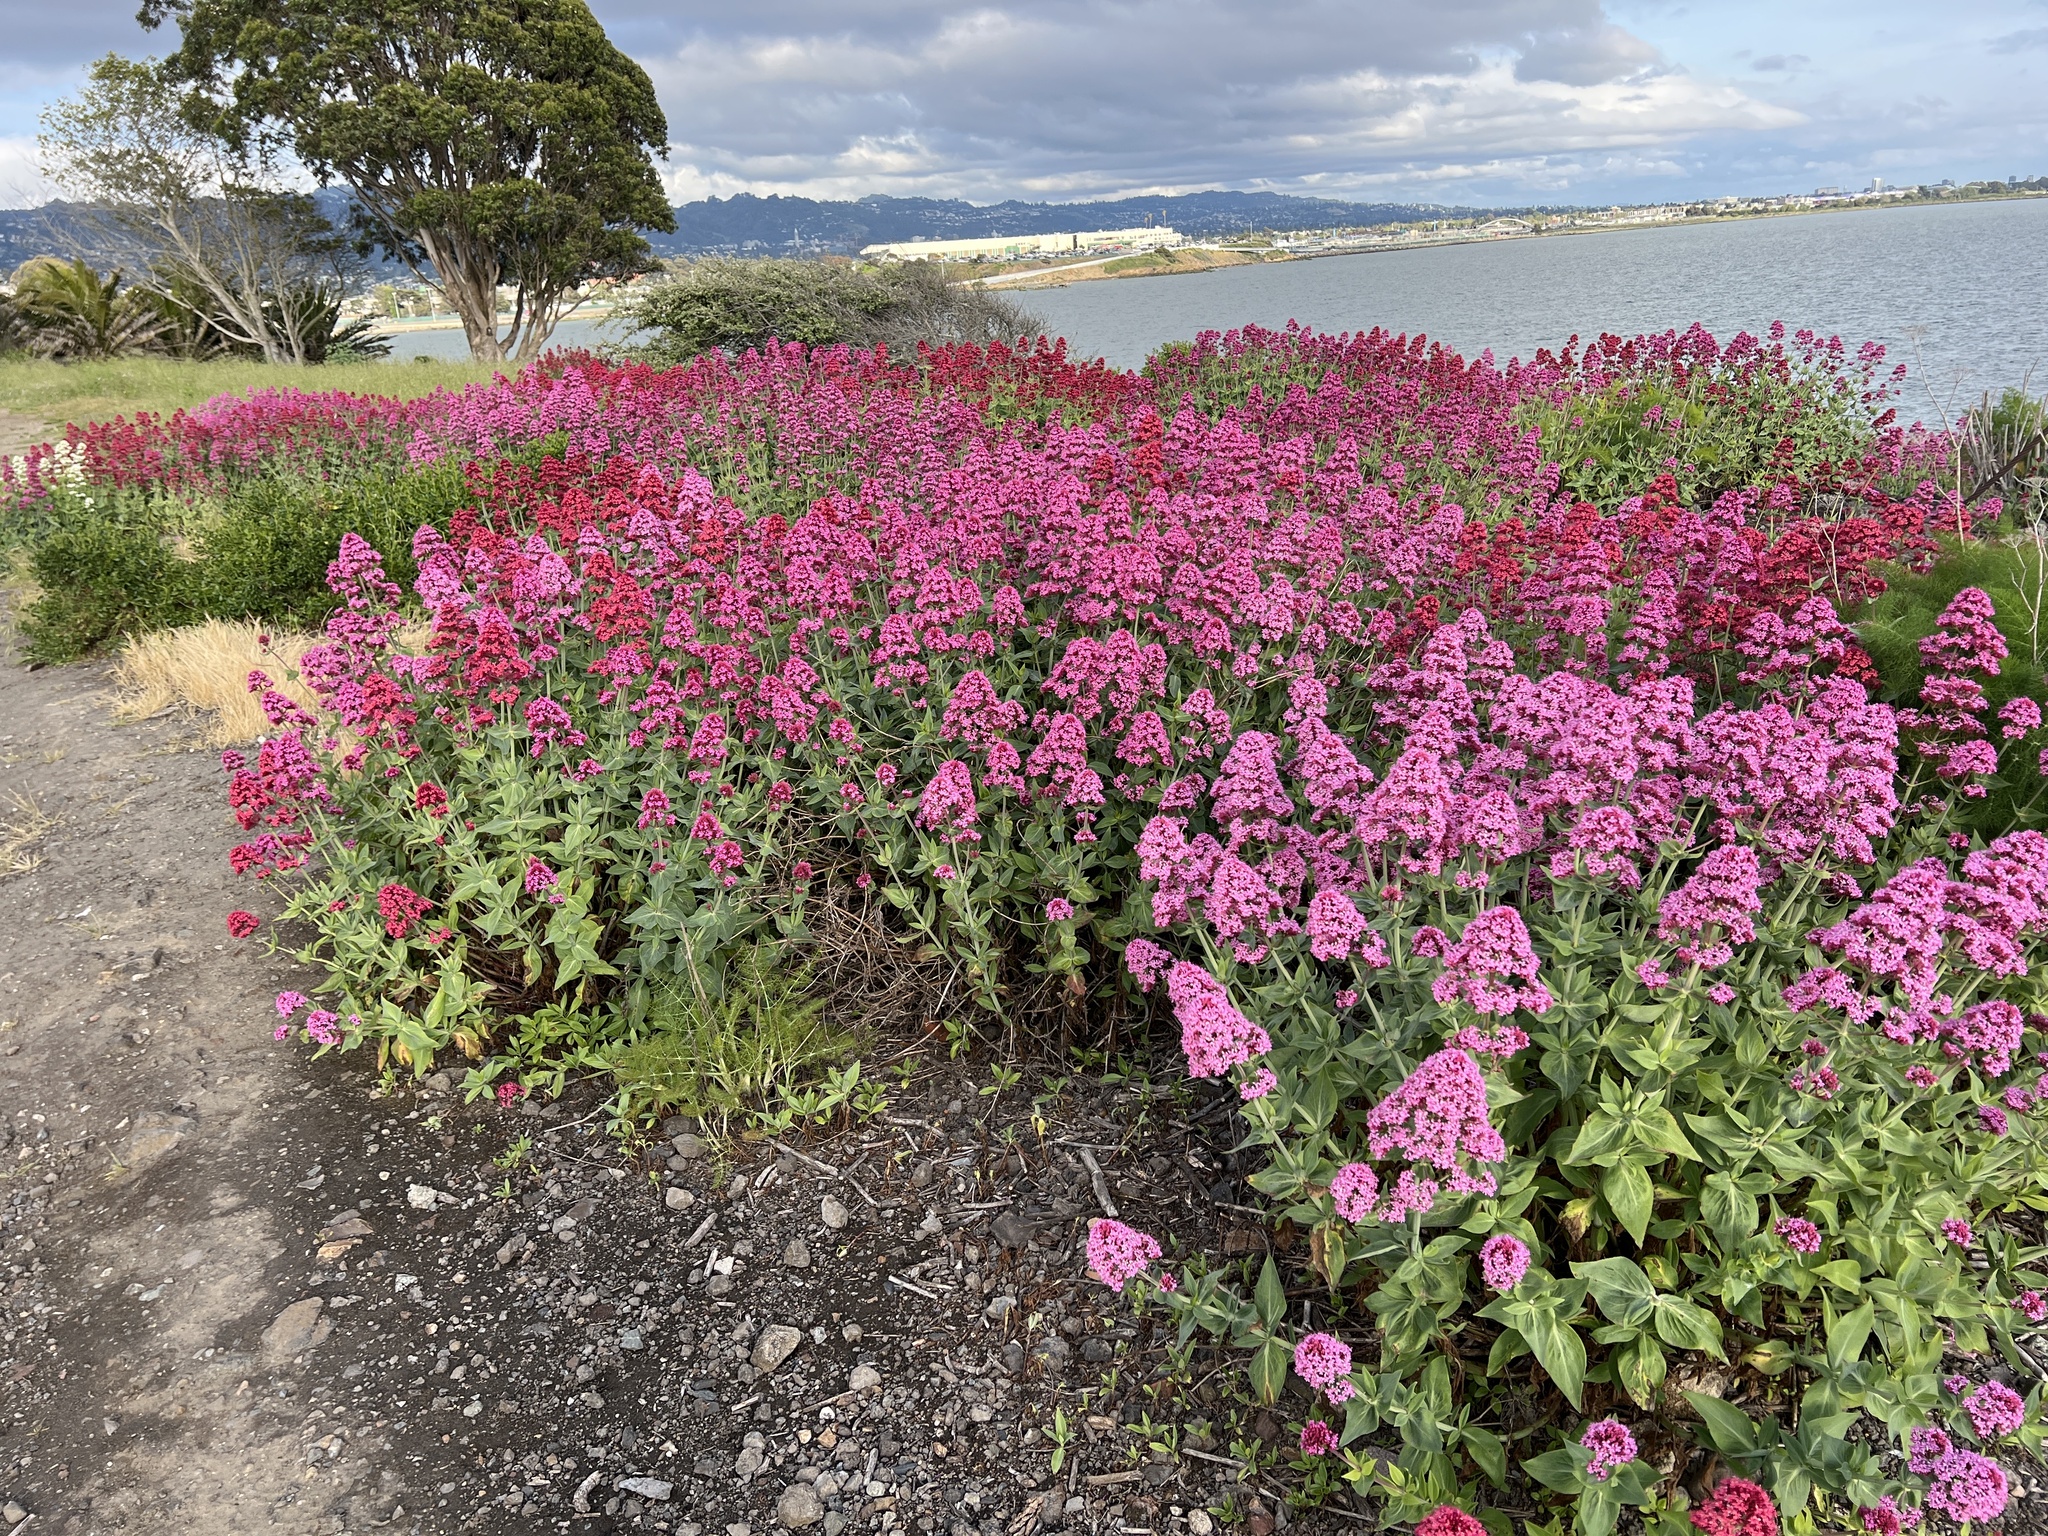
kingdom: Plantae
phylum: Tracheophyta
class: Magnoliopsida
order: Dipsacales
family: Caprifoliaceae
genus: Centranthus
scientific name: Centranthus ruber
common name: Red valerian
